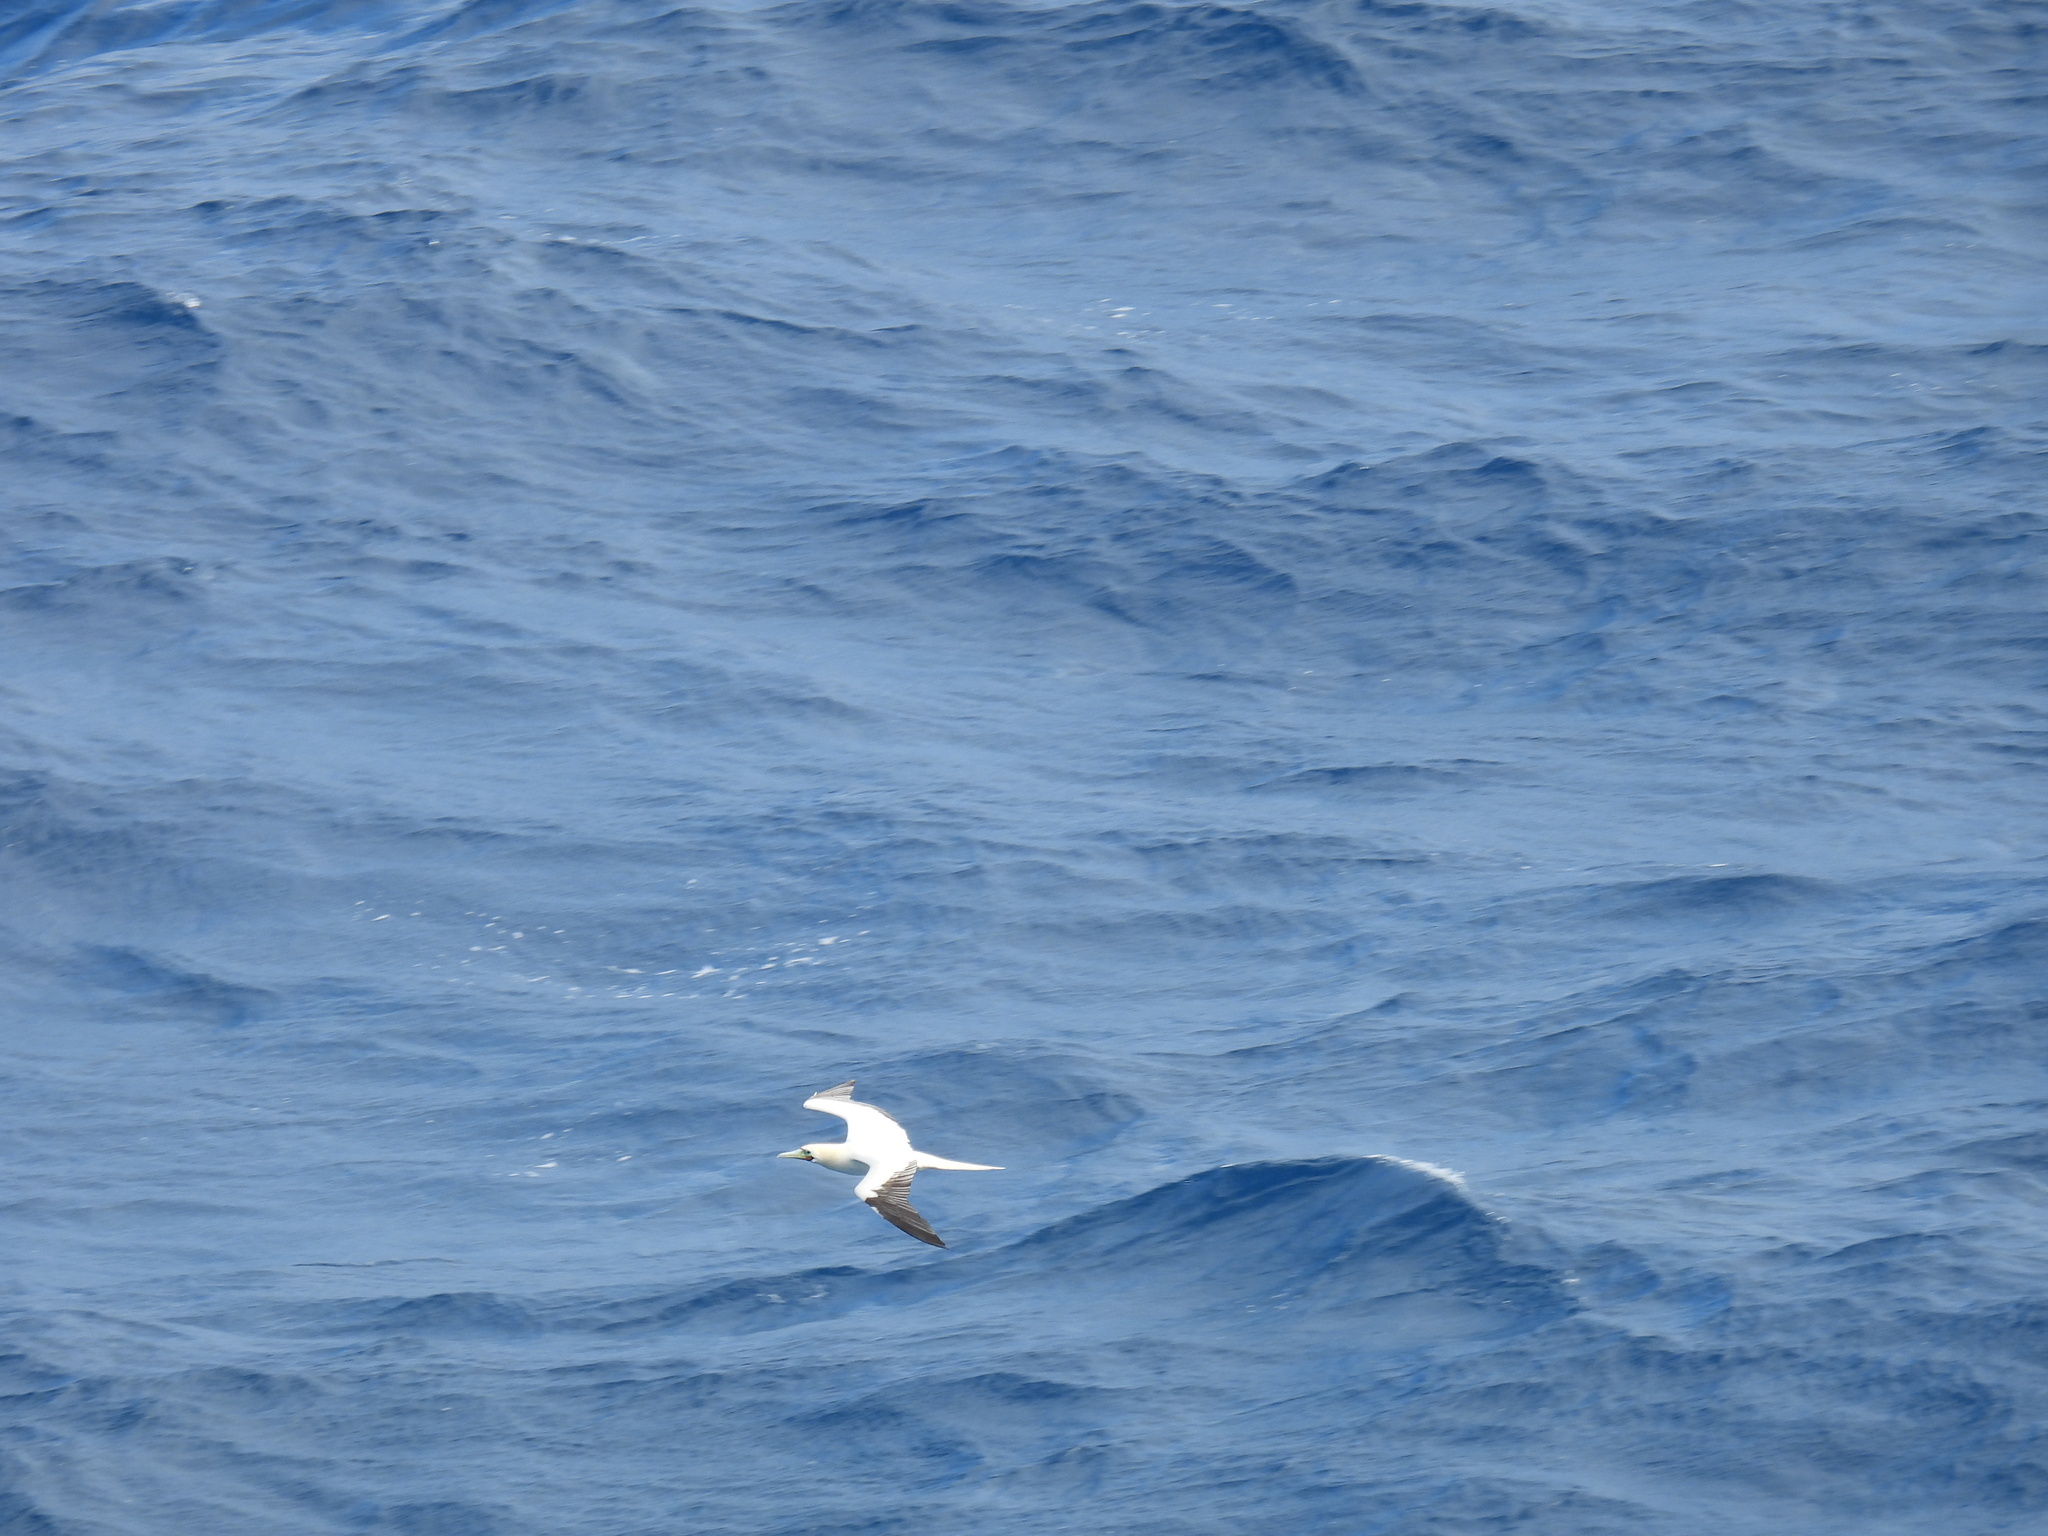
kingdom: Animalia
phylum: Chordata
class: Aves
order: Suliformes
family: Sulidae
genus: Sula
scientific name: Sula sula
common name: Red-footed booby
